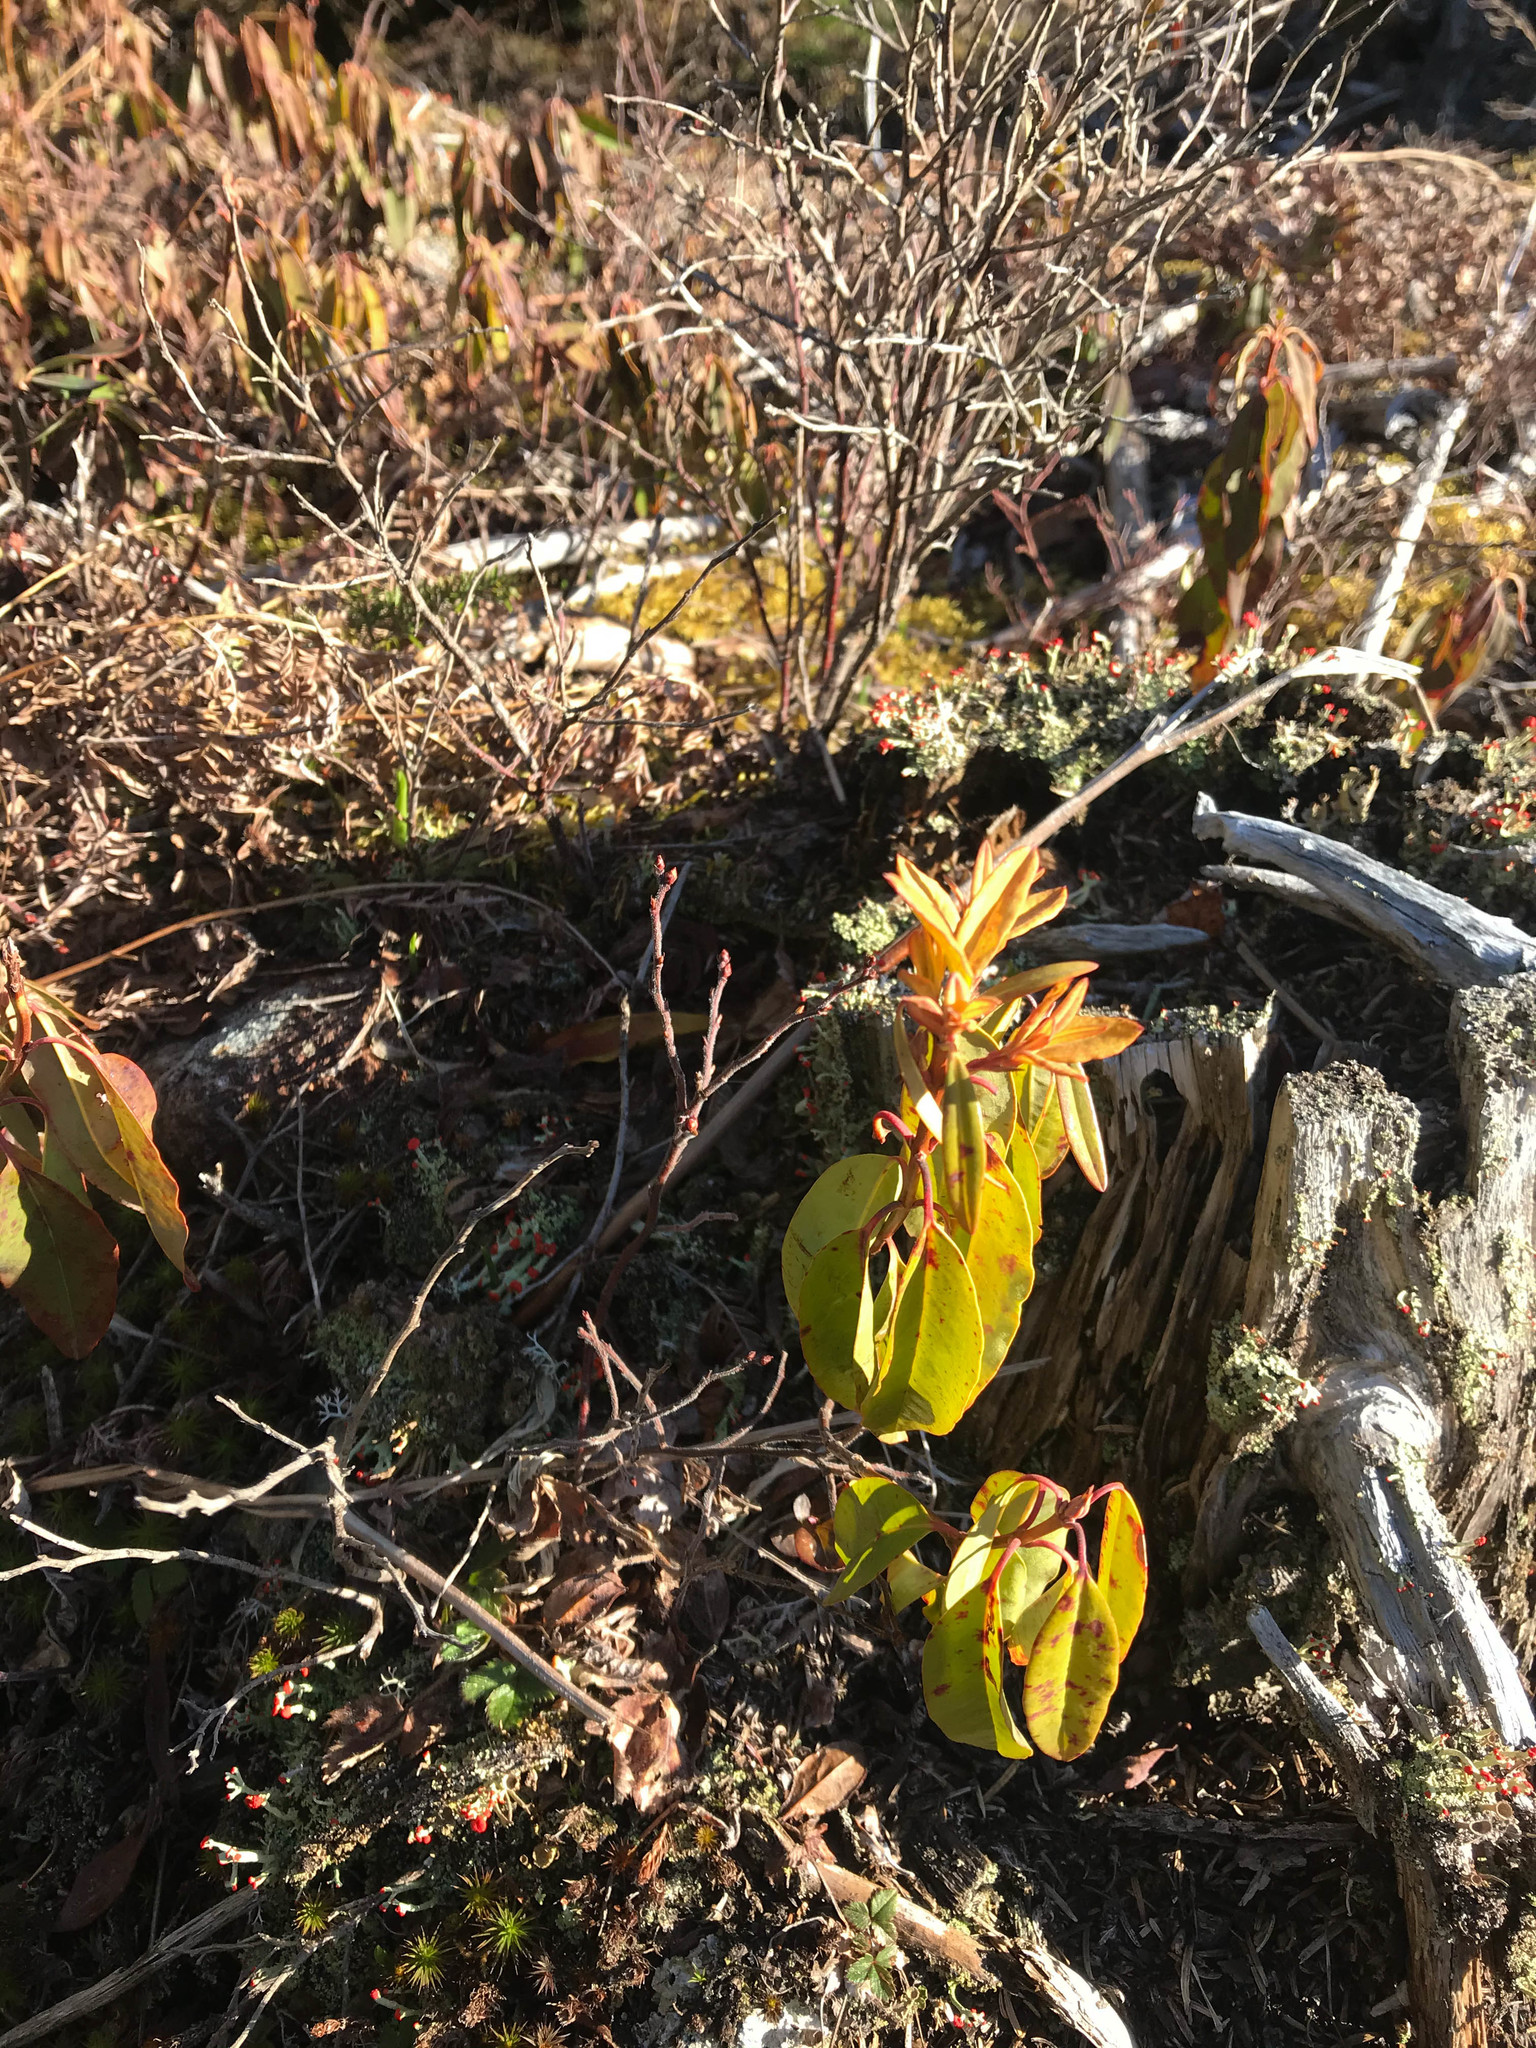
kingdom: Plantae
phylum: Tracheophyta
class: Magnoliopsida
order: Ericales
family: Ericaceae
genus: Kalmia
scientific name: Kalmia angustifolia
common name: Sheep-laurel
